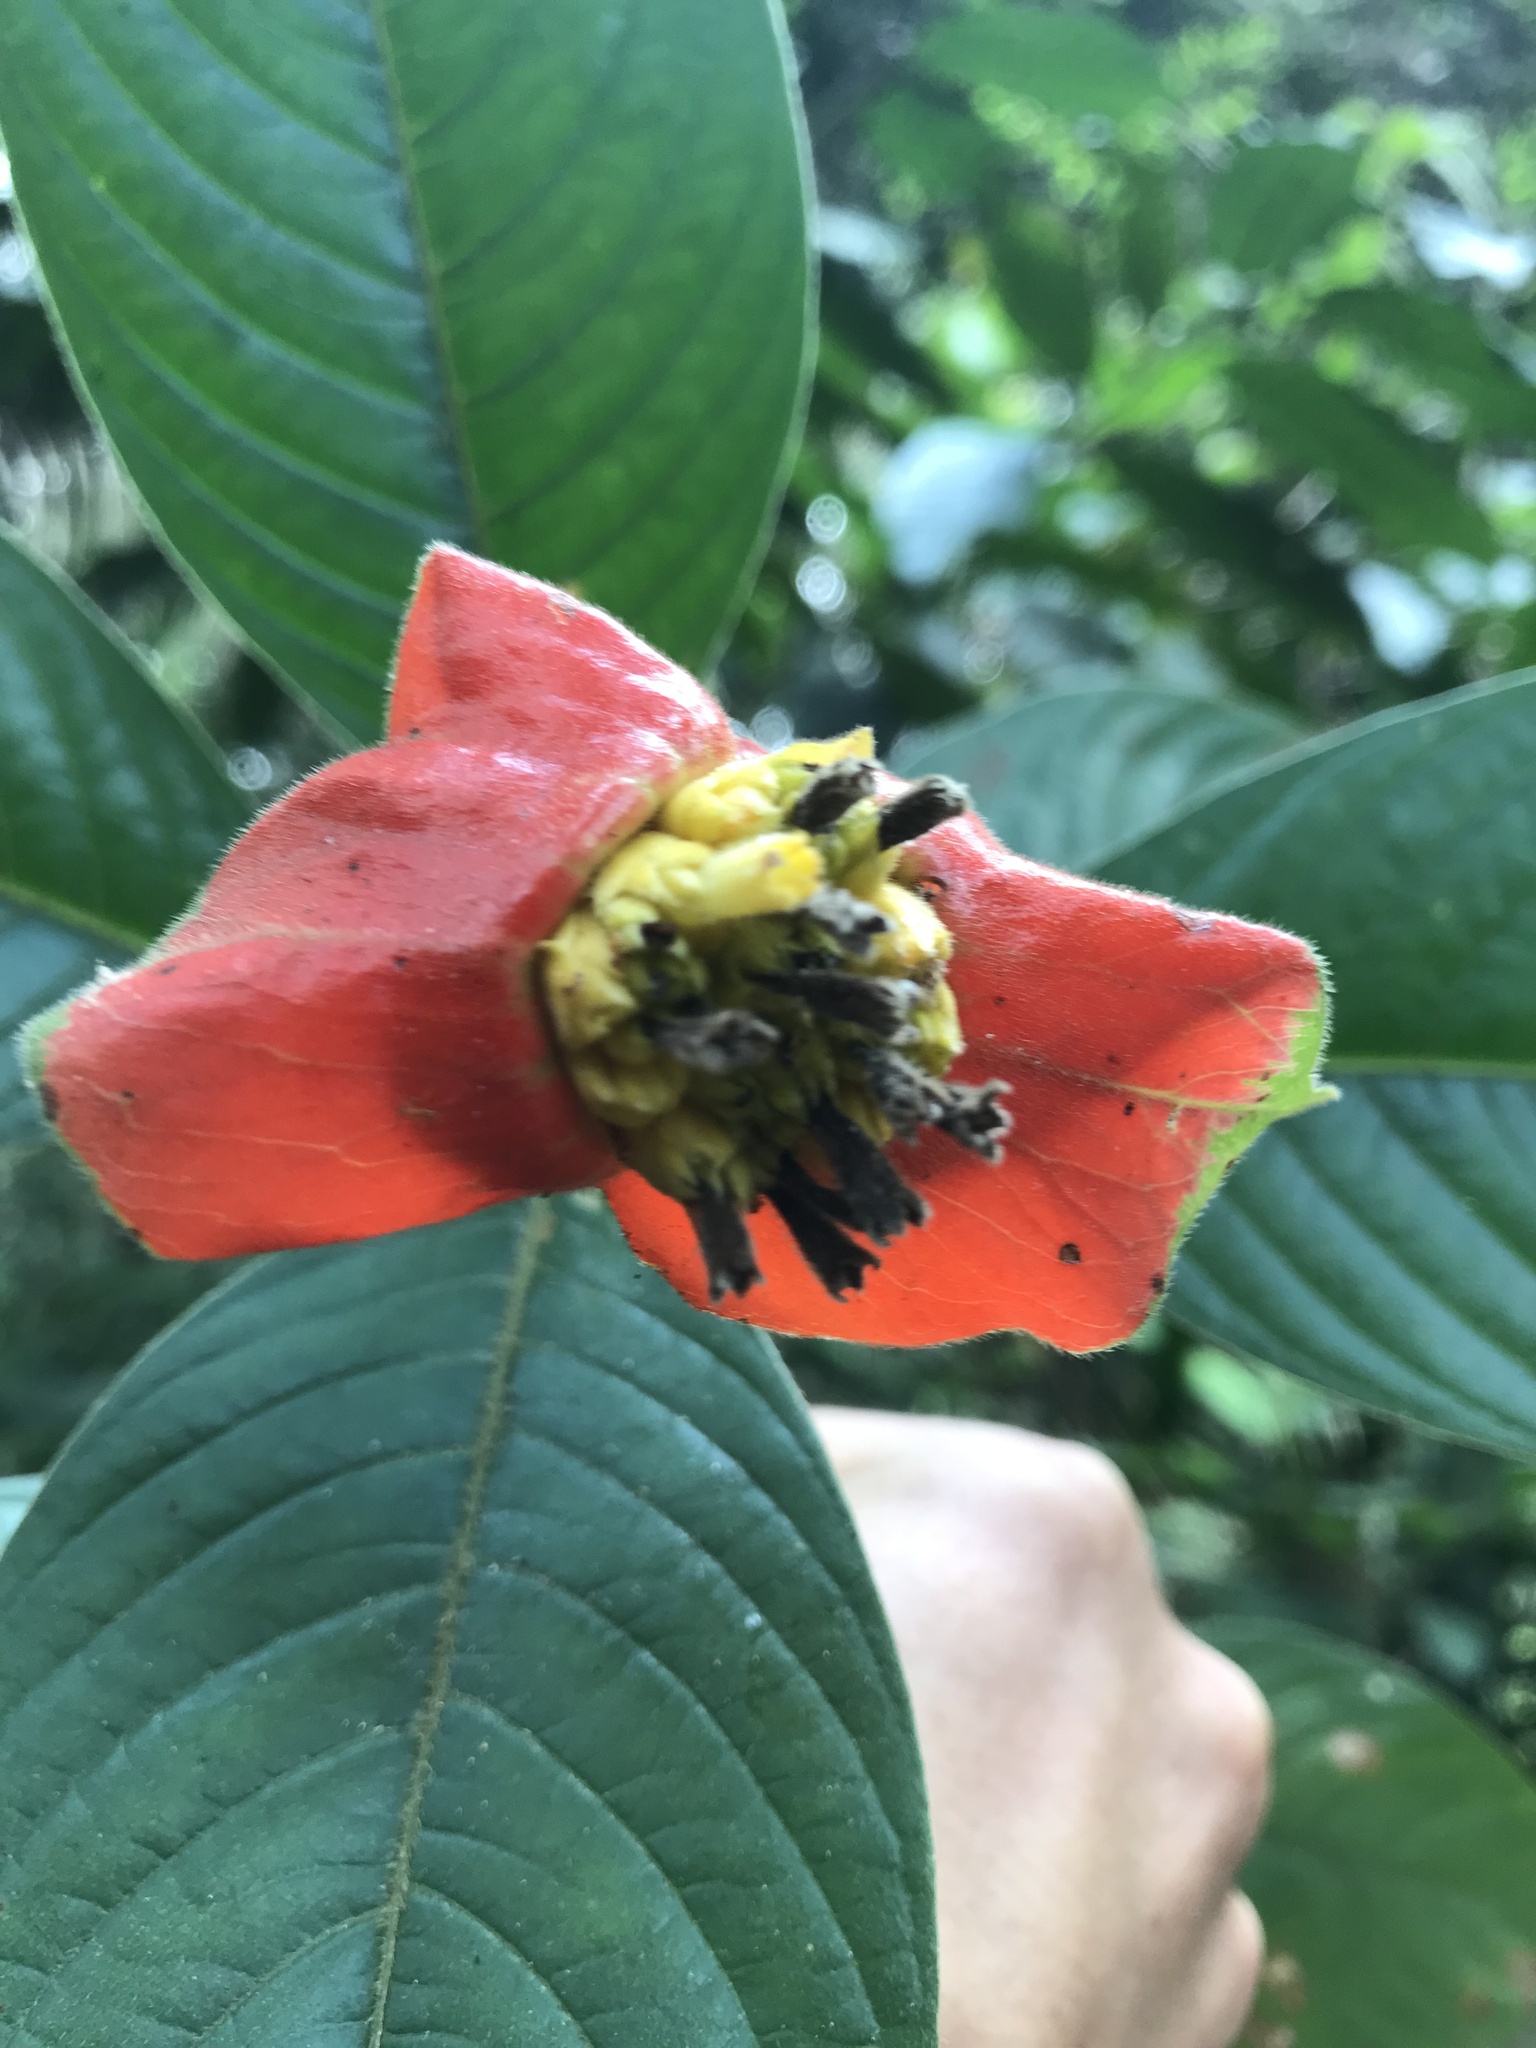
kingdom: Plantae
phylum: Tracheophyta
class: Magnoliopsida
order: Gentianales
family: Rubiaceae
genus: Palicourea
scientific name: Palicourea tomentosa
